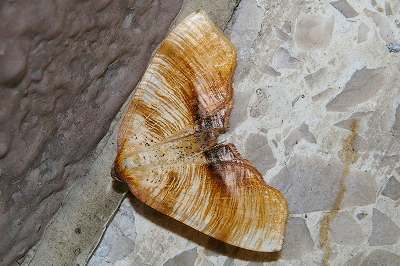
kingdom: Animalia
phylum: Arthropoda
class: Insecta
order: Lepidoptera
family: Geometridae
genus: Plagodis
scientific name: Plagodis dolabraria
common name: Scorched wing
